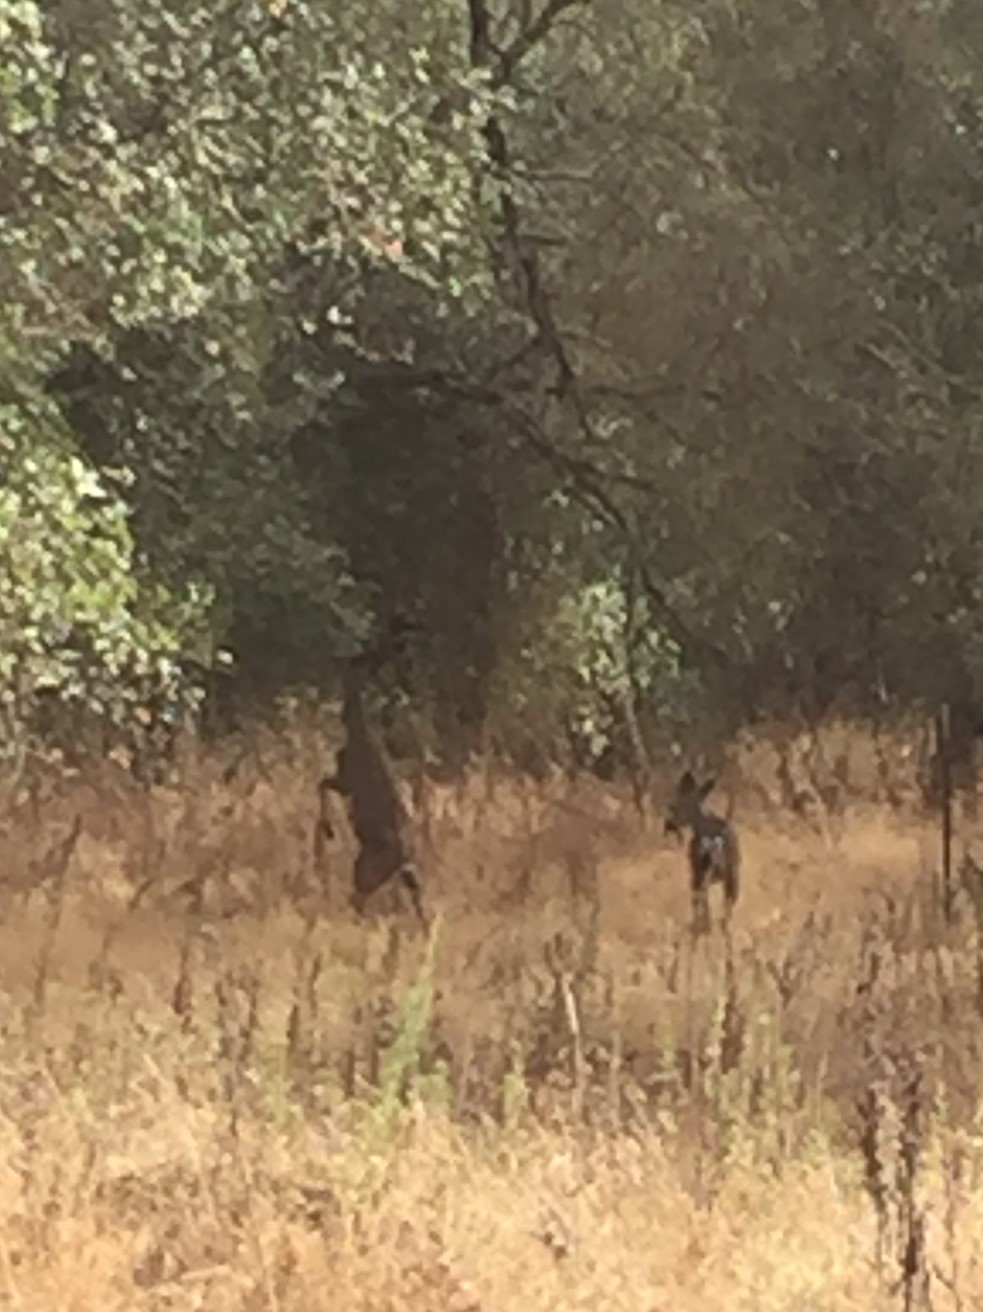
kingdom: Animalia
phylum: Chordata
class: Mammalia
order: Artiodactyla
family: Cervidae
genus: Odocoileus
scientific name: Odocoileus hemionus
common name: Mule deer
